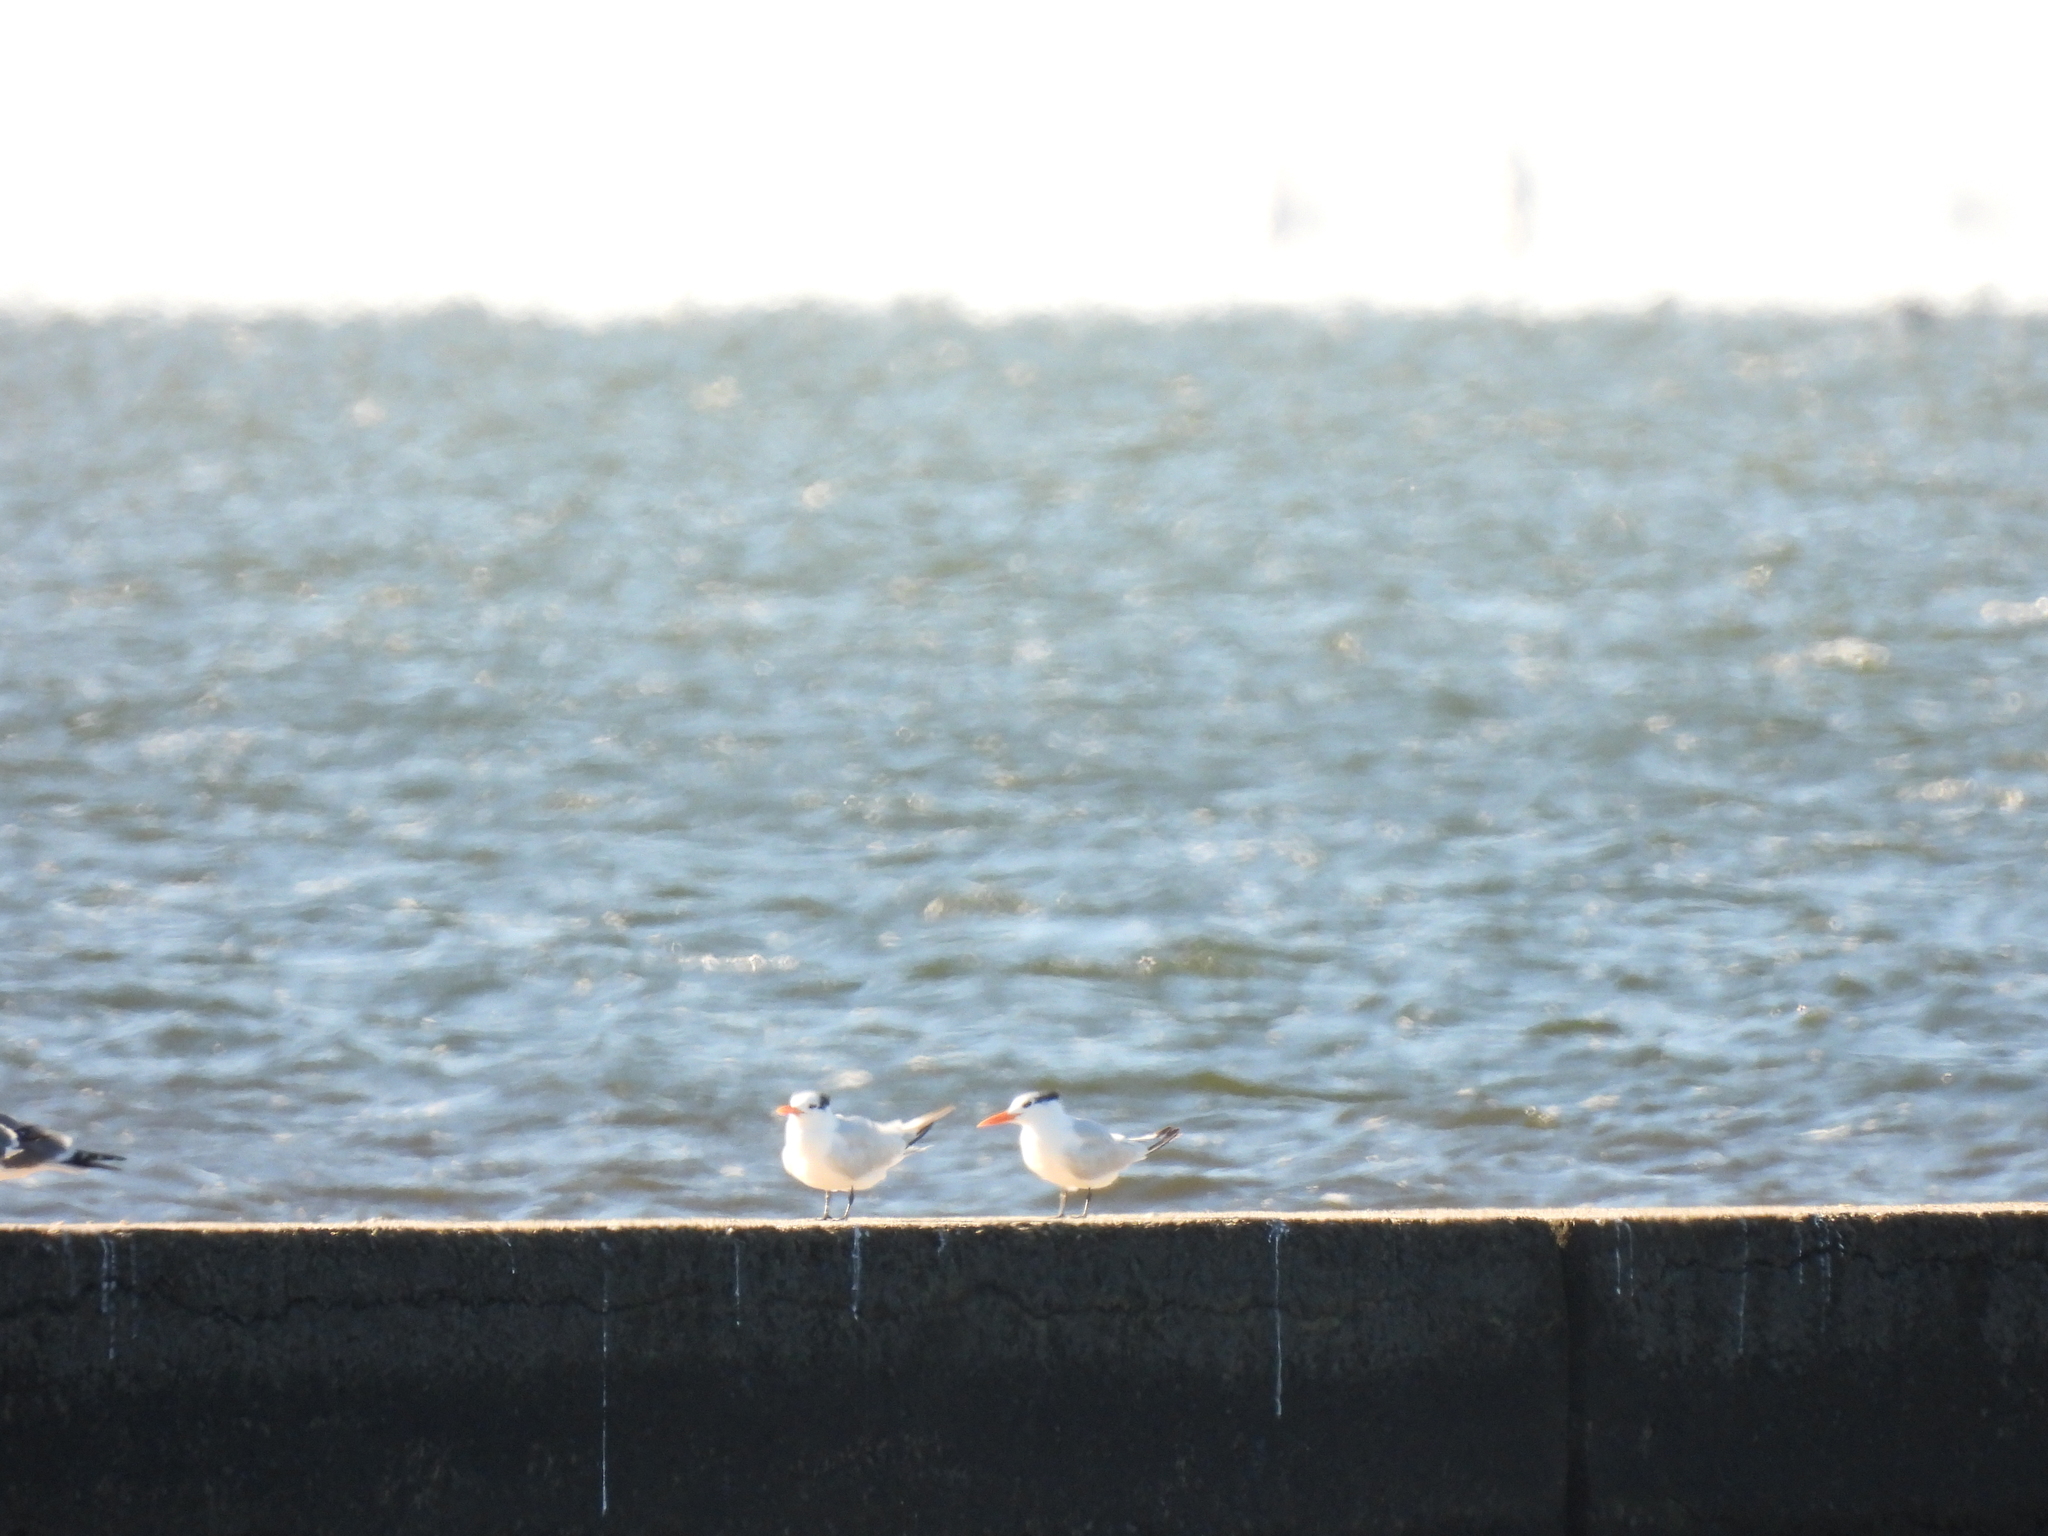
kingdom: Animalia
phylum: Chordata
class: Aves
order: Charadriiformes
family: Laridae
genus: Thalasseus
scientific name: Thalasseus maximus
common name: Royal tern
